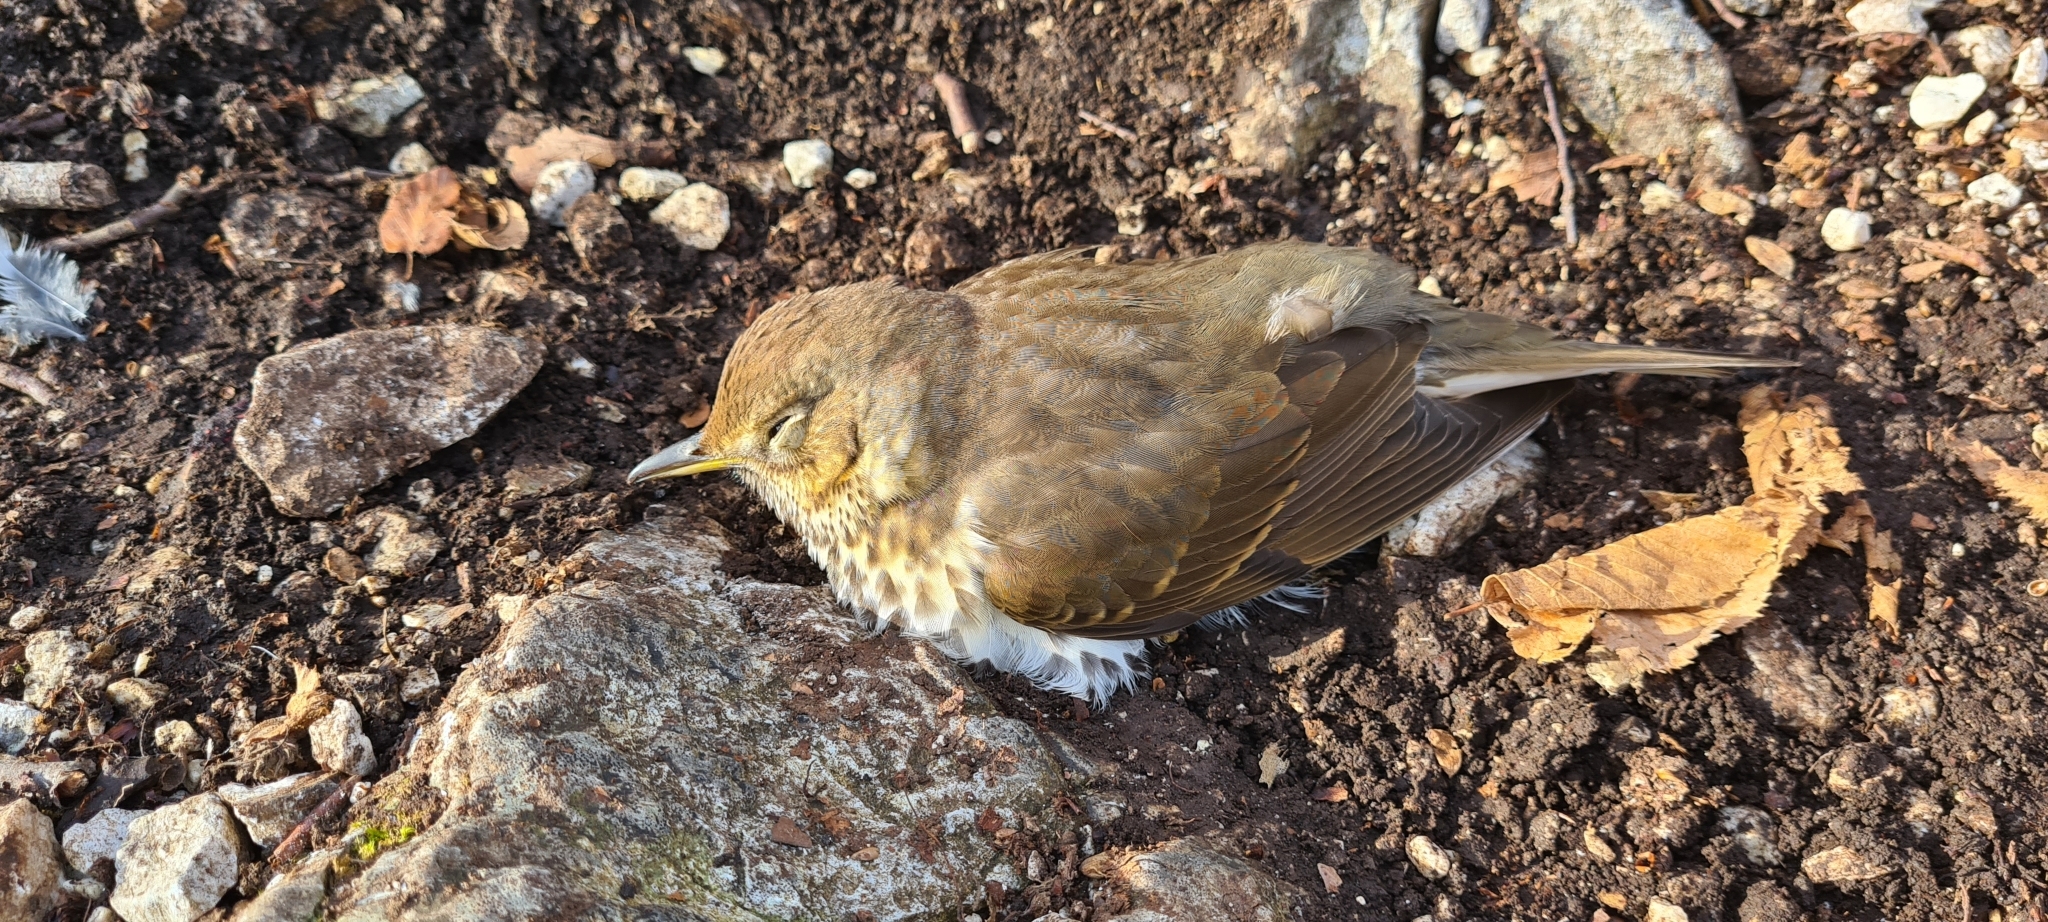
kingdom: Animalia
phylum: Chordata
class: Aves
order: Passeriformes
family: Turdidae
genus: Turdus
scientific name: Turdus philomelos
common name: Song thrush
